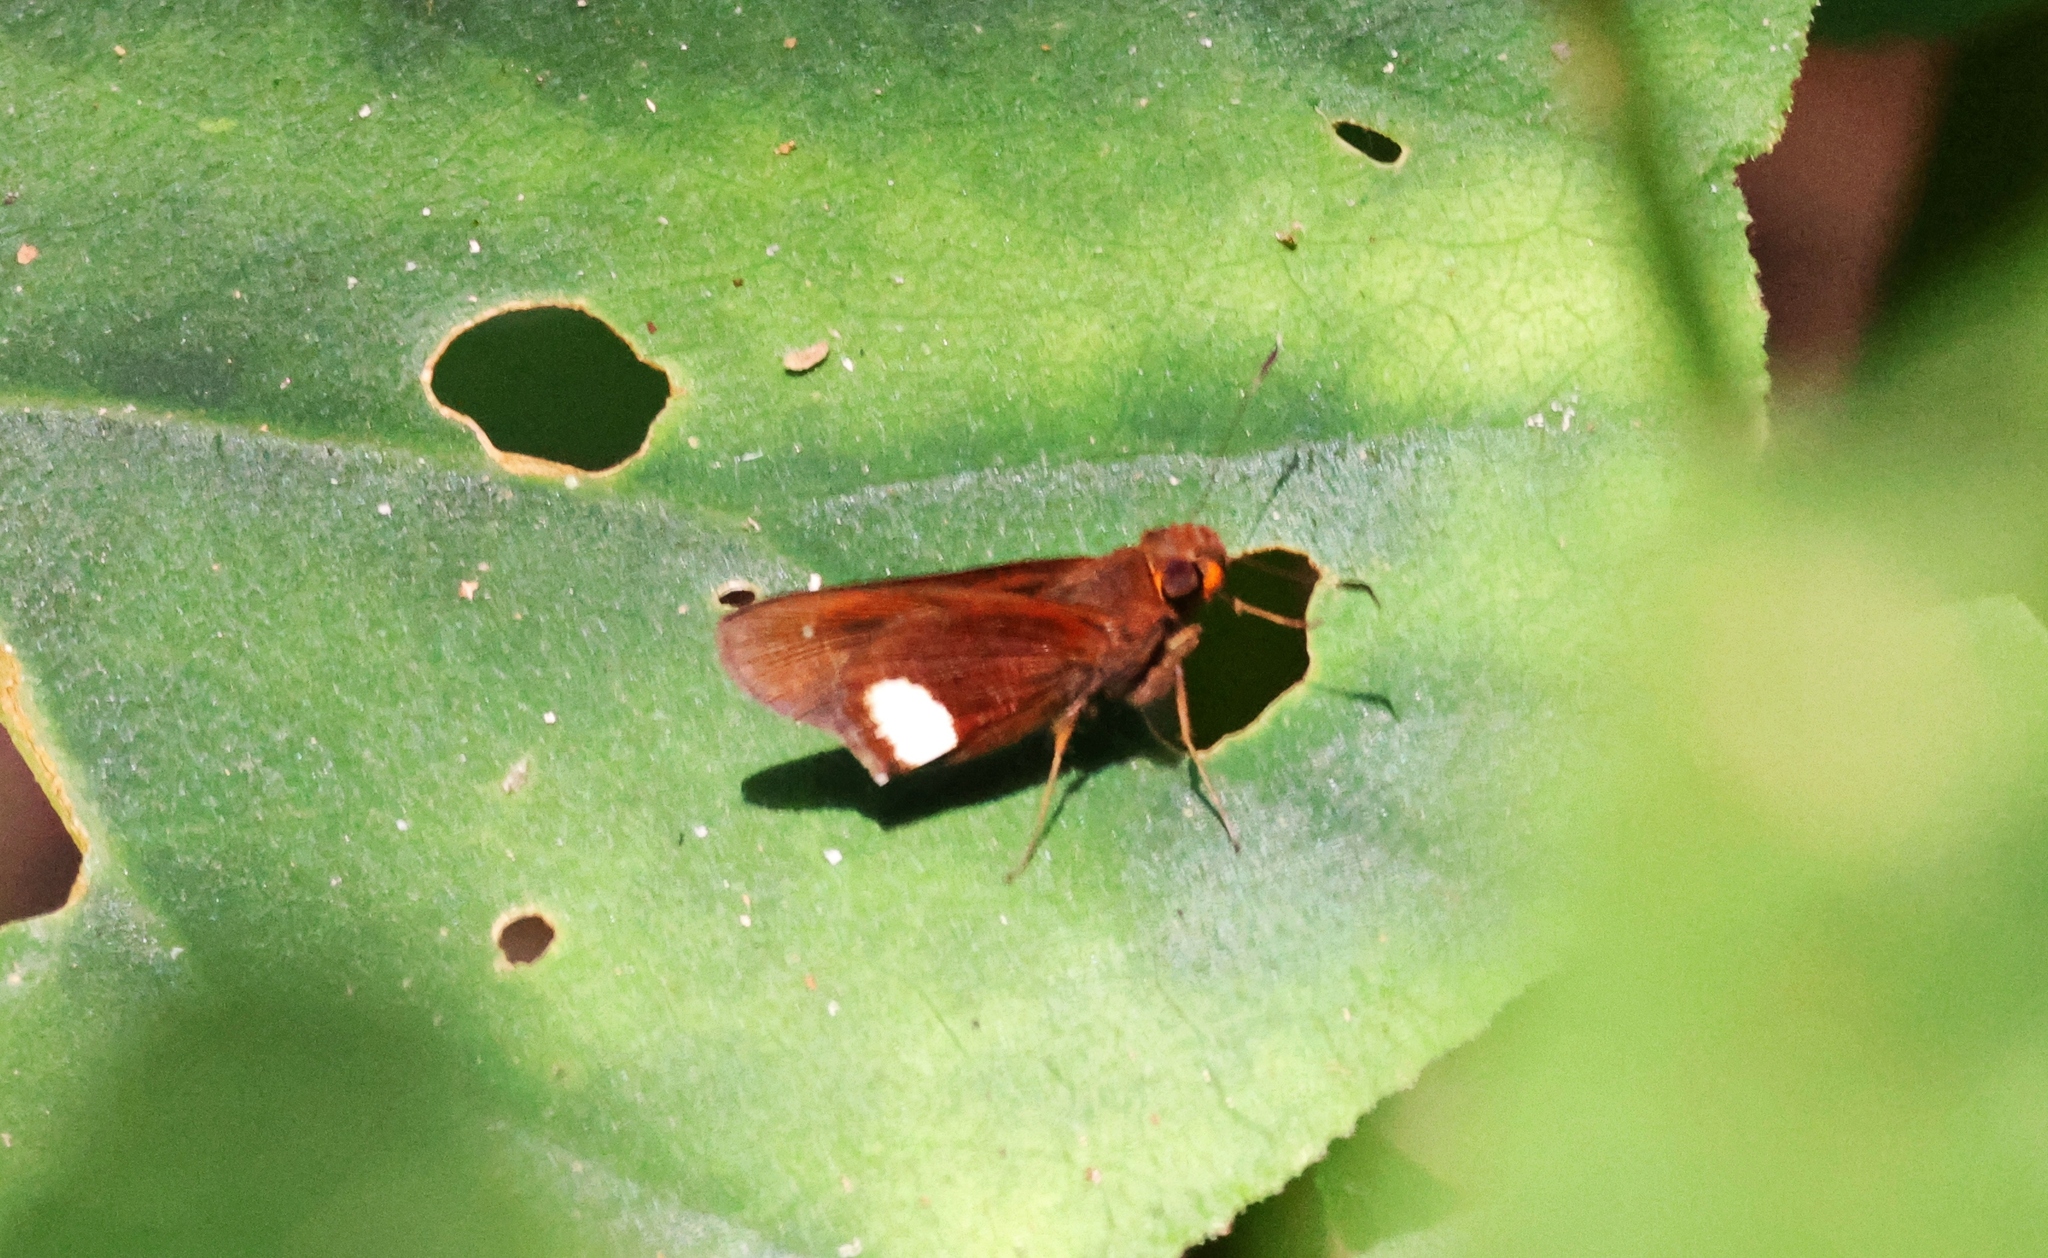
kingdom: Animalia
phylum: Arthropoda
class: Insecta
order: Lepidoptera
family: Hesperiidae
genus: Cobalus
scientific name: Cobalus fidicula
